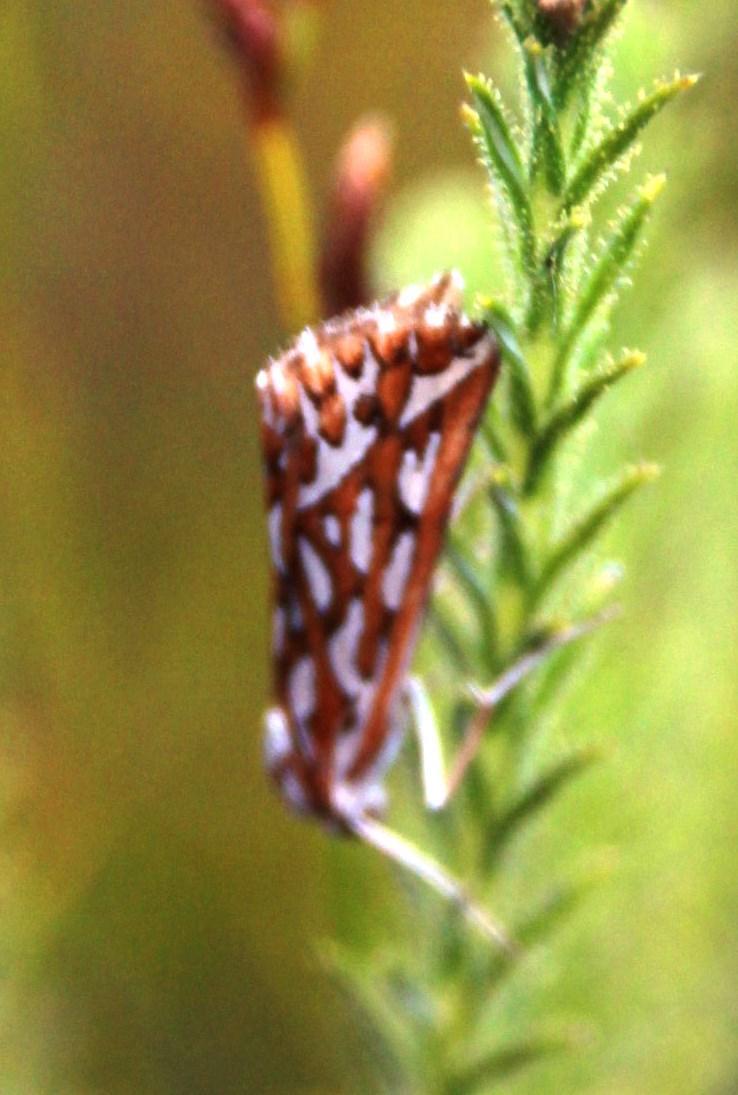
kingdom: Animalia
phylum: Arthropoda
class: Insecta
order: Lepidoptera
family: Geometridae
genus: Argyrophora
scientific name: Argyrophora trofonia
